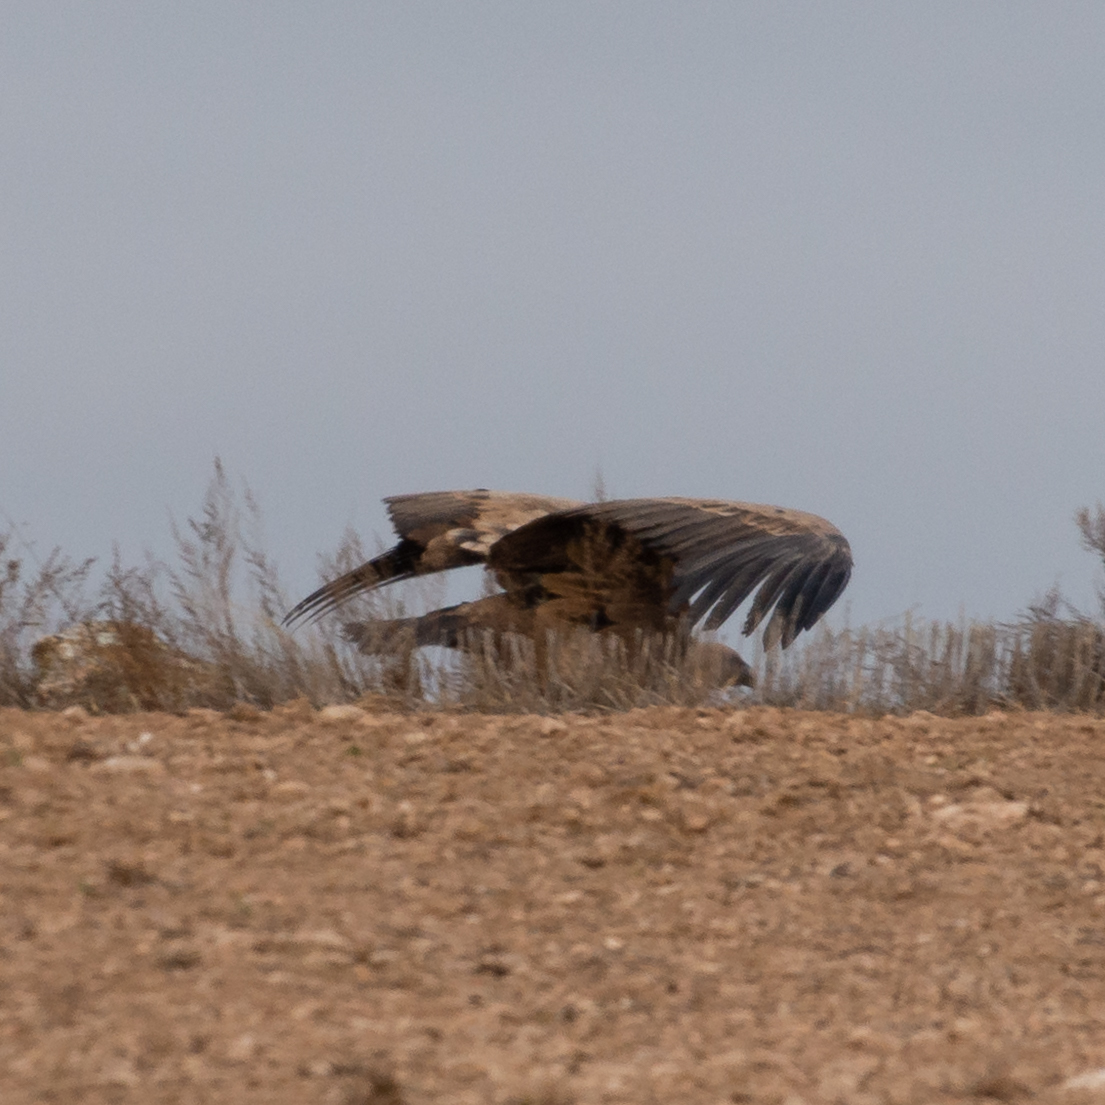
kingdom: Animalia
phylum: Chordata
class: Aves
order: Accipitriformes
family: Accipitridae
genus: Gyps
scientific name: Gyps fulvus
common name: Griffon vulture
